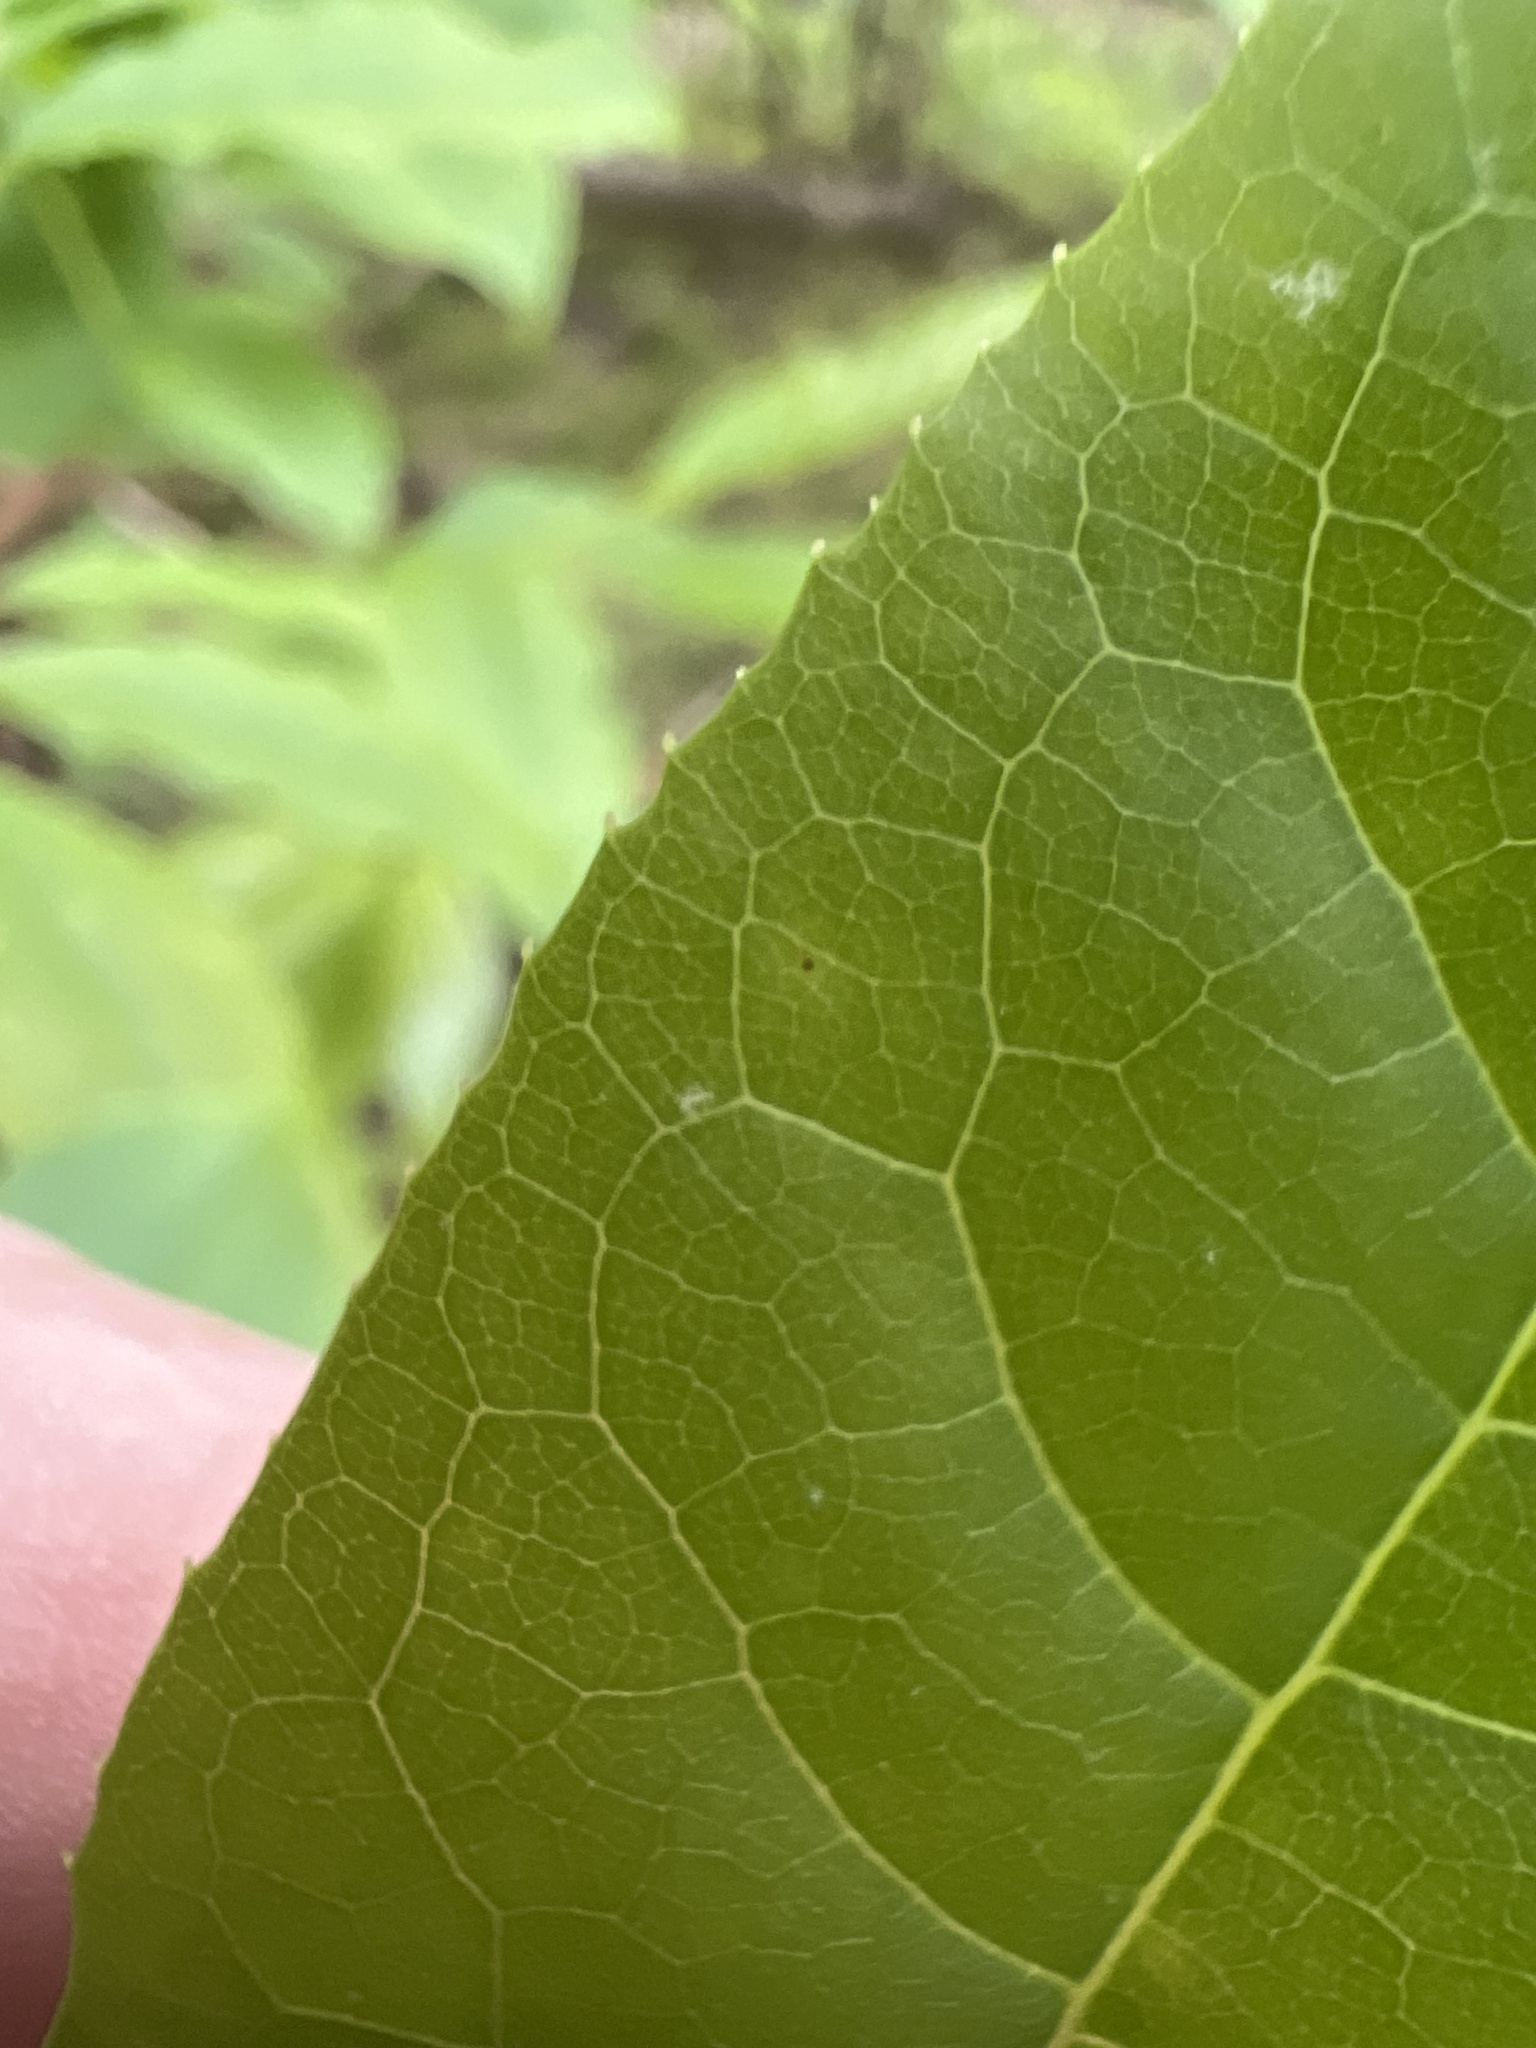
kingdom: Plantae
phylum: Tracheophyta
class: Magnoliopsida
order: Ericales
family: Ericaceae
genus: Oxydendrum
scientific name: Oxydendrum arboreum
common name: Sourwood
